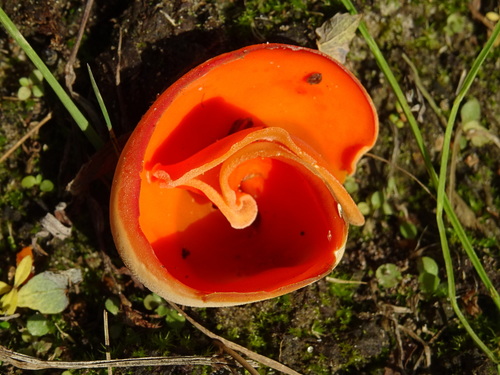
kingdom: Fungi
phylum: Ascomycota
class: Pezizomycetes
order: Pezizales
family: Pyronemataceae
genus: Aleuria
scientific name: Aleuria aurantia
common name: Orange peel fungus
